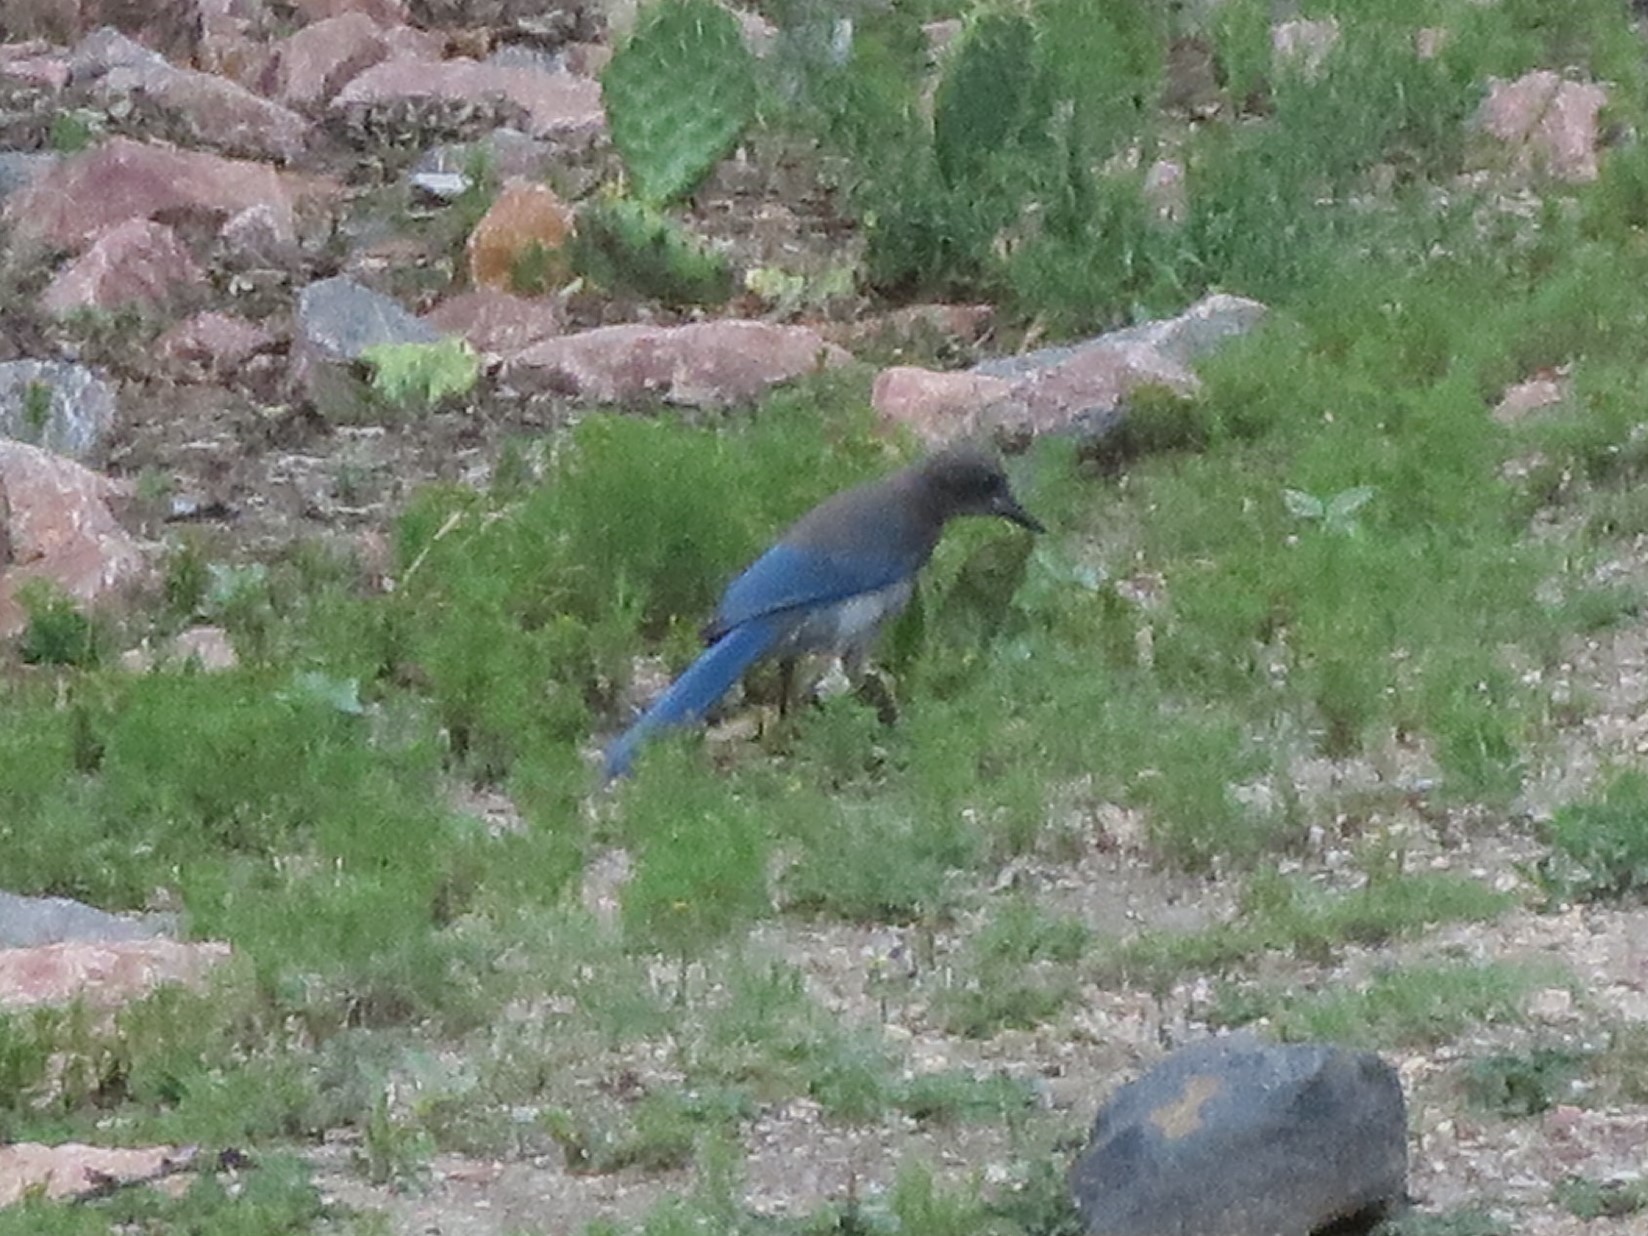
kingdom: Animalia
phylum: Chordata
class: Aves
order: Passeriformes
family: Corvidae
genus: Aphelocoma
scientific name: Aphelocoma woodhouseii
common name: Woodhouse's scrub-jay
